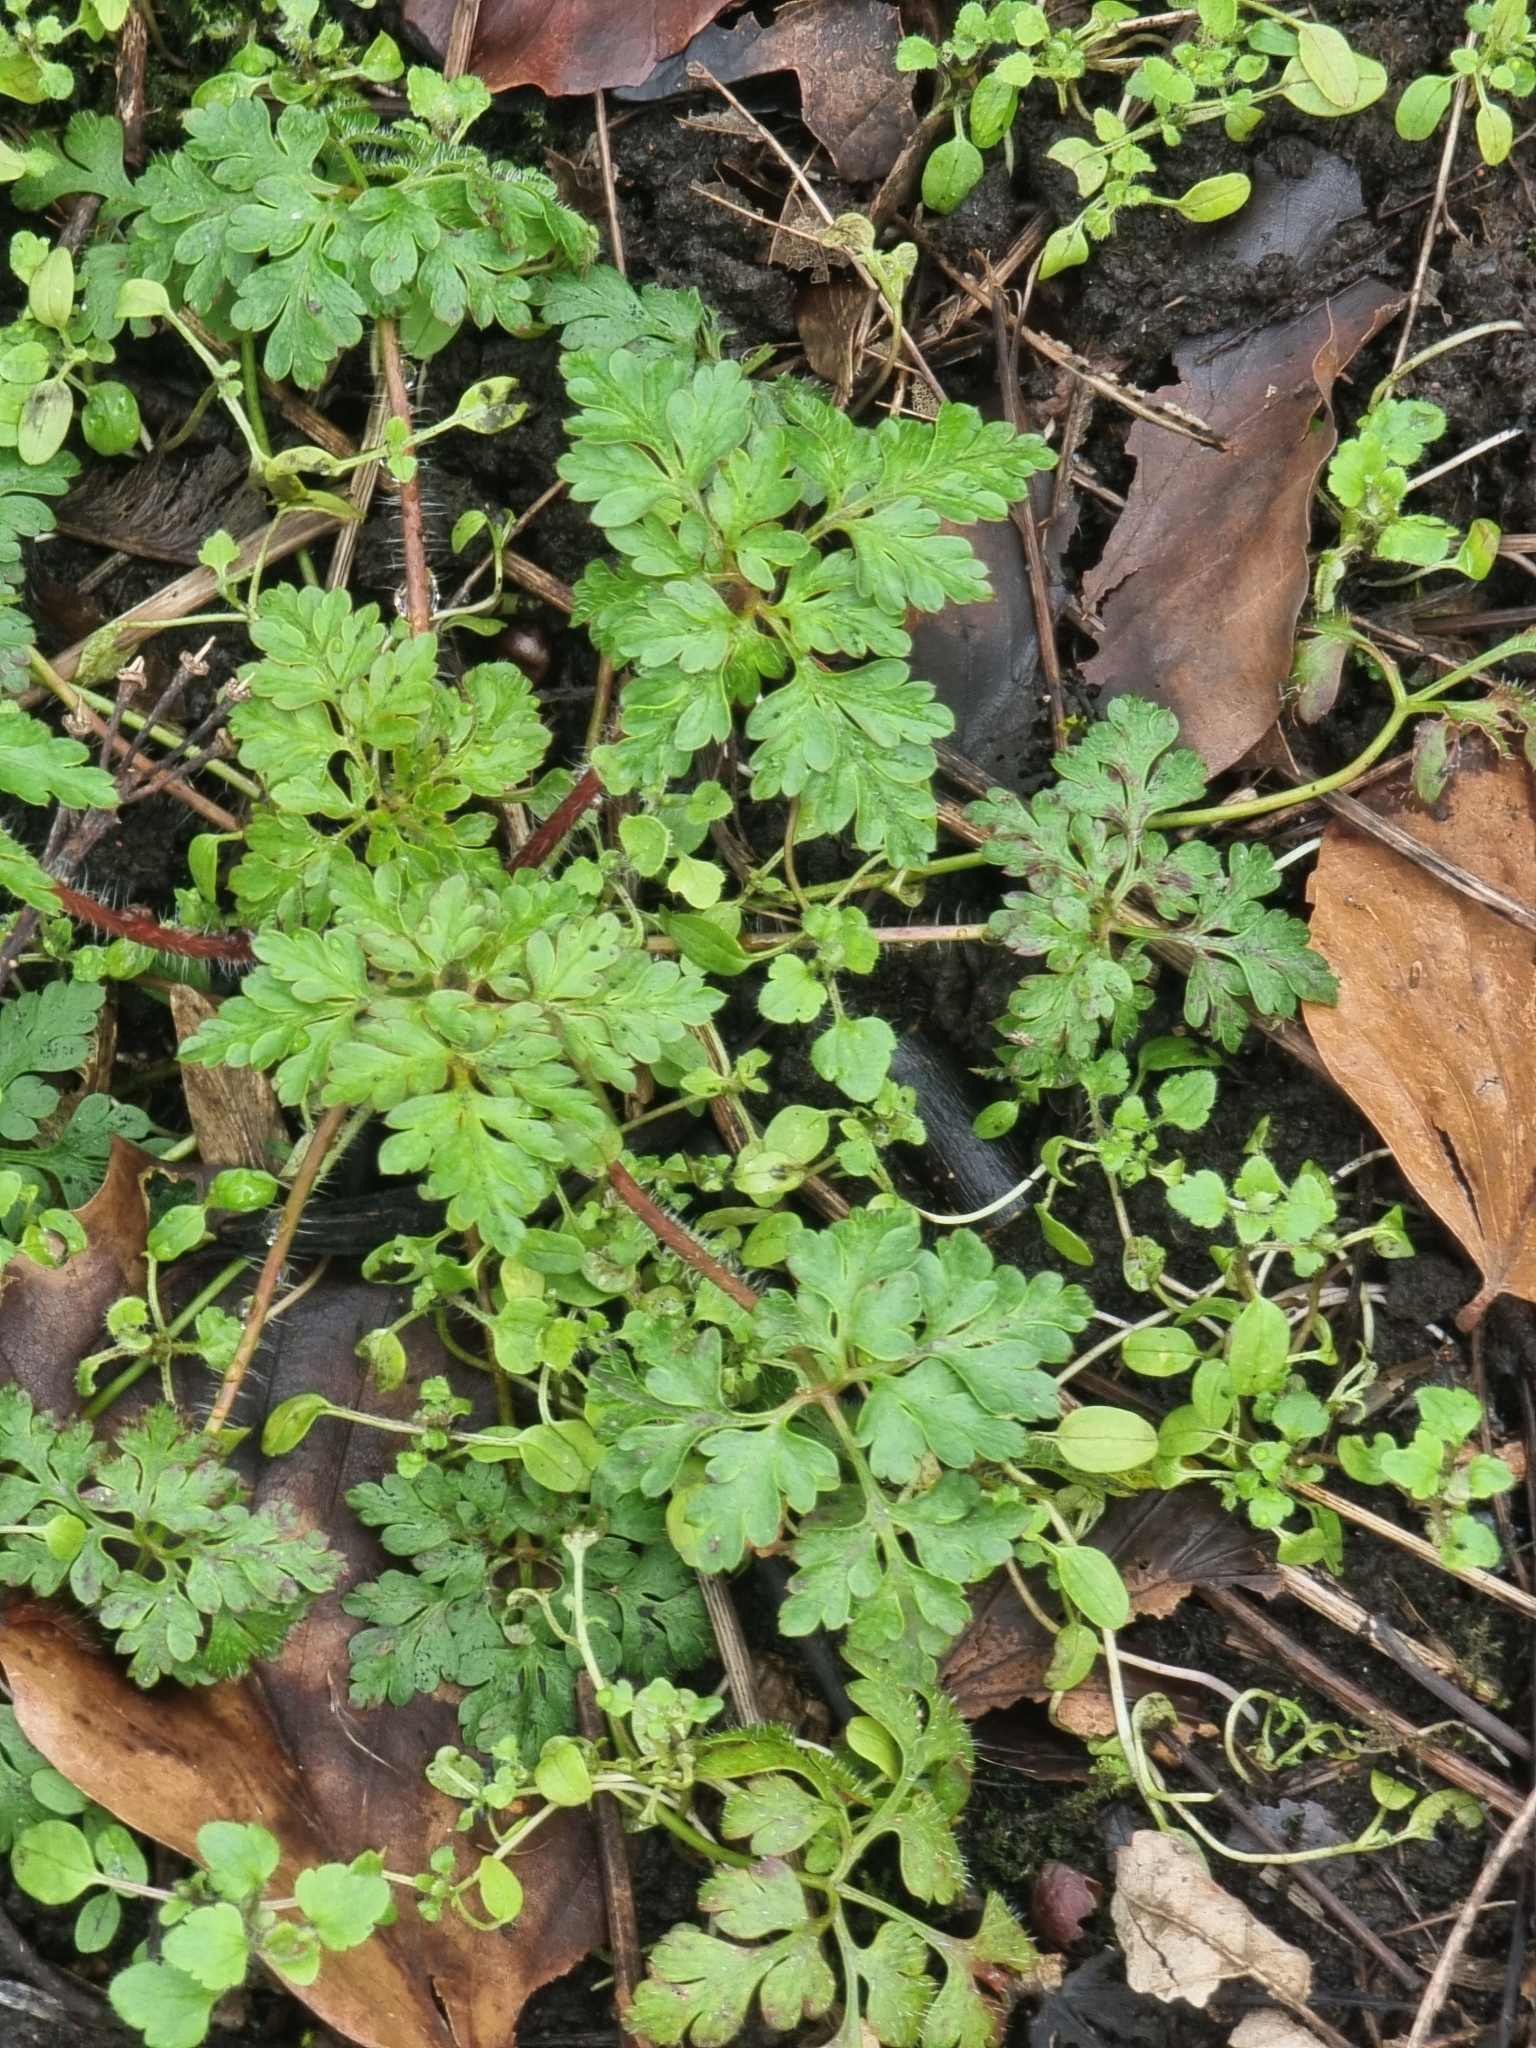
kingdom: Plantae
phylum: Tracheophyta
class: Magnoliopsida
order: Geraniales
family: Geraniaceae
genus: Geranium
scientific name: Geranium robertianum
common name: Herb-robert
